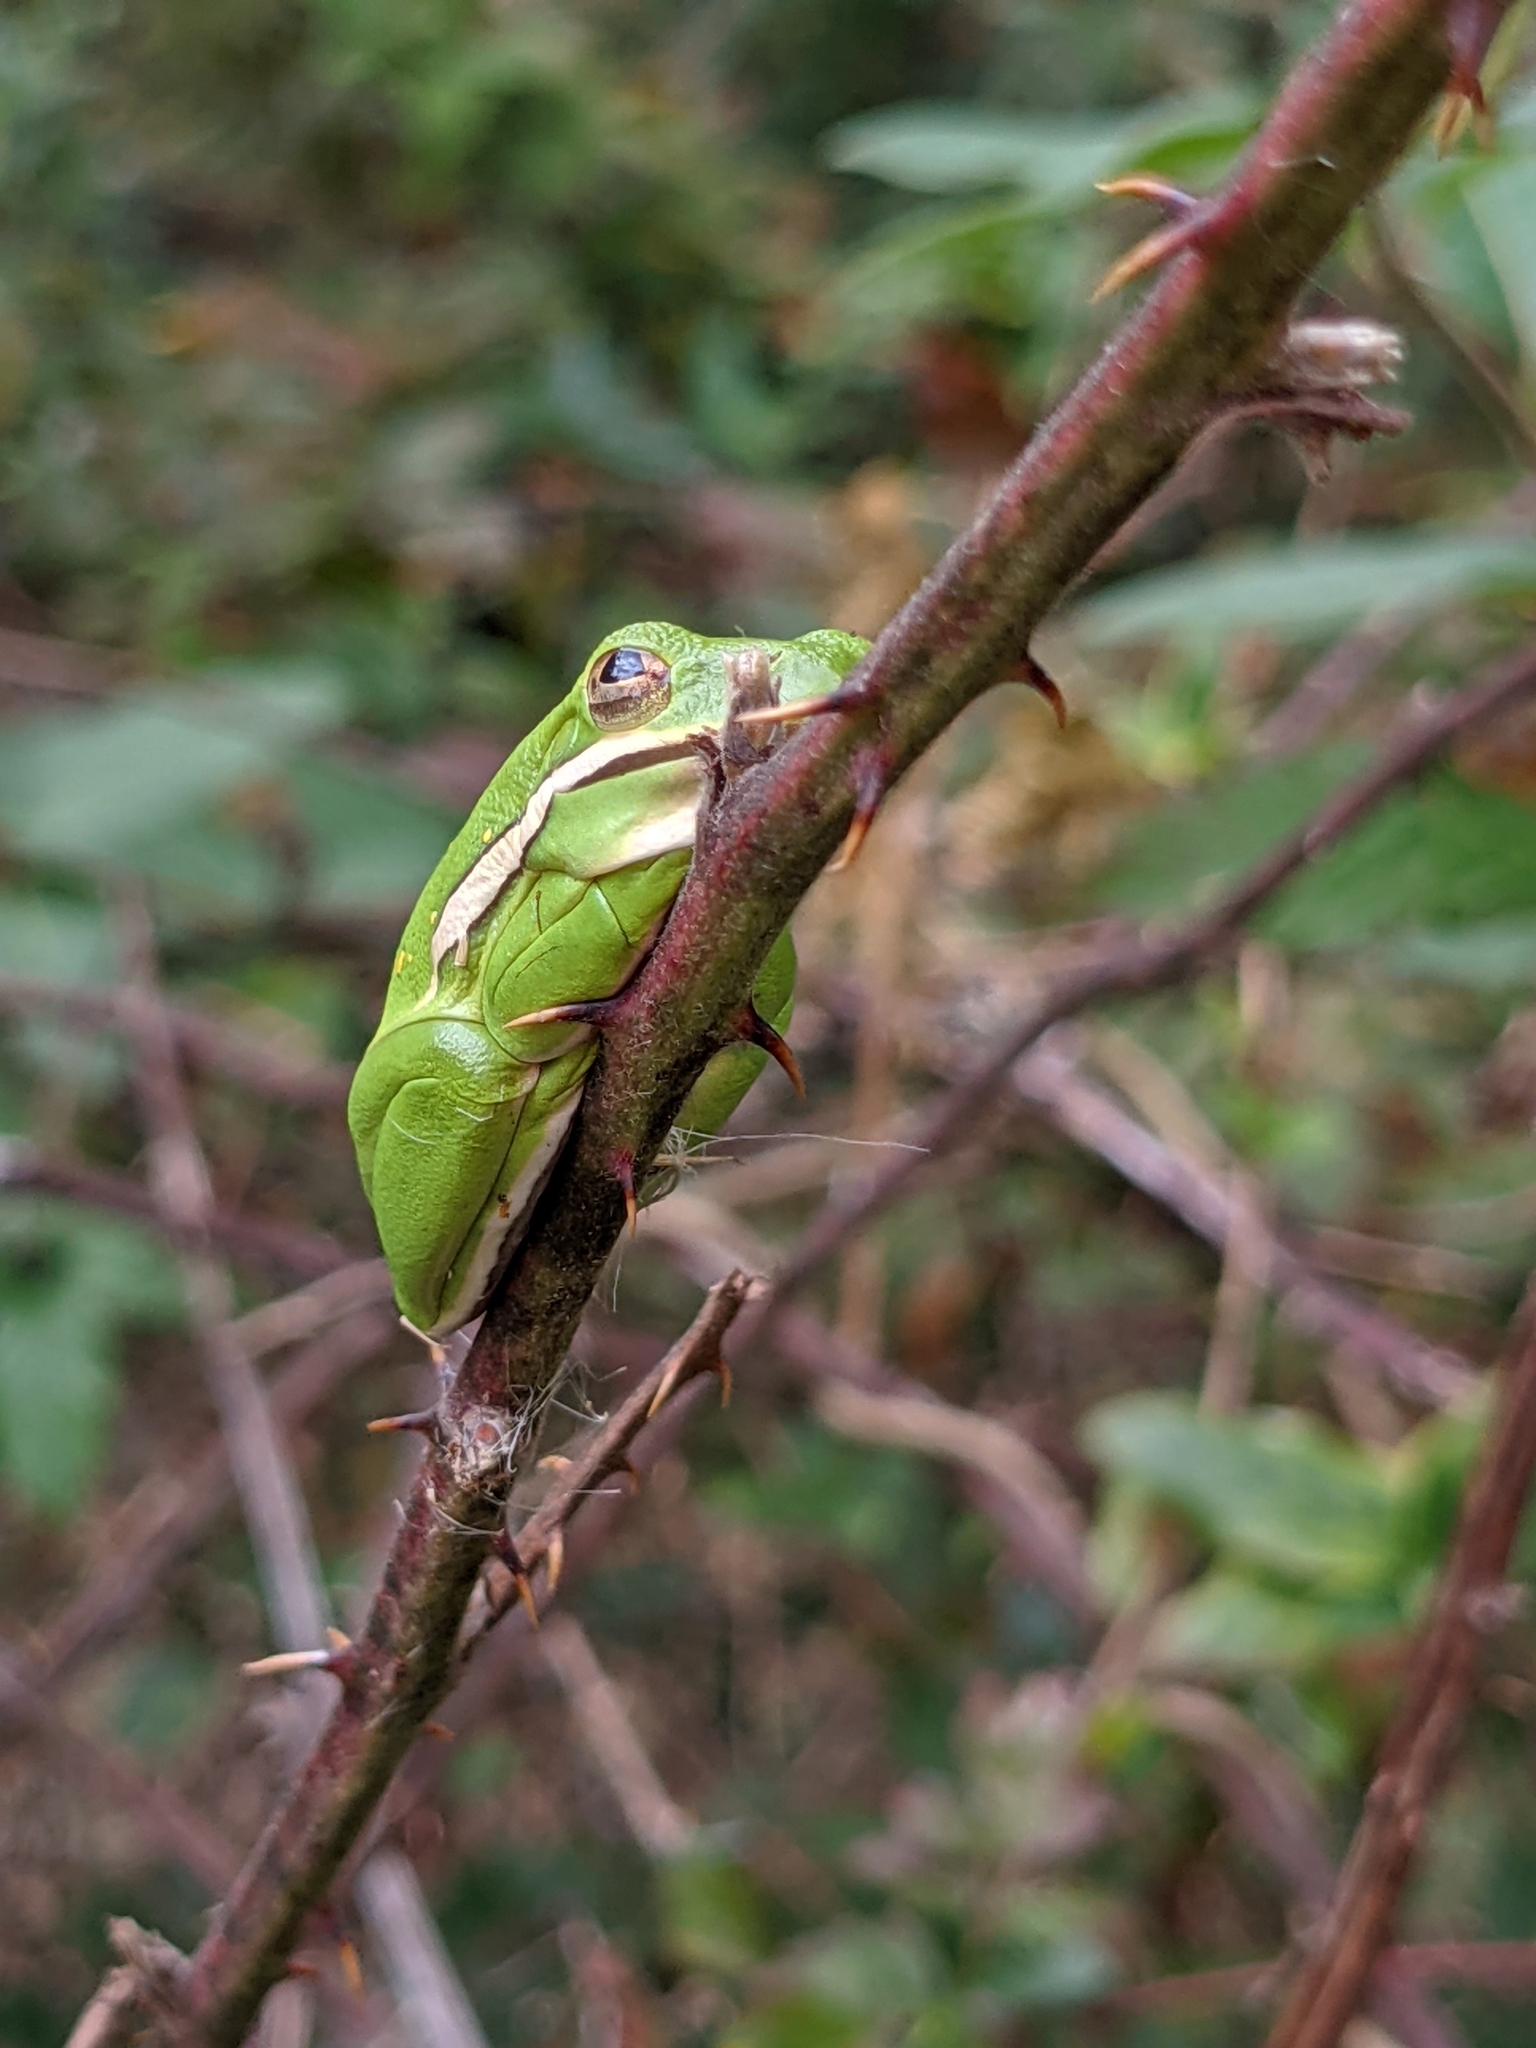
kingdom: Animalia
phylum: Chordata
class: Amphibia
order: Anura
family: Hylidae
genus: Dryophytes
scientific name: Dryophytes cinereus
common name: Green treefrog
